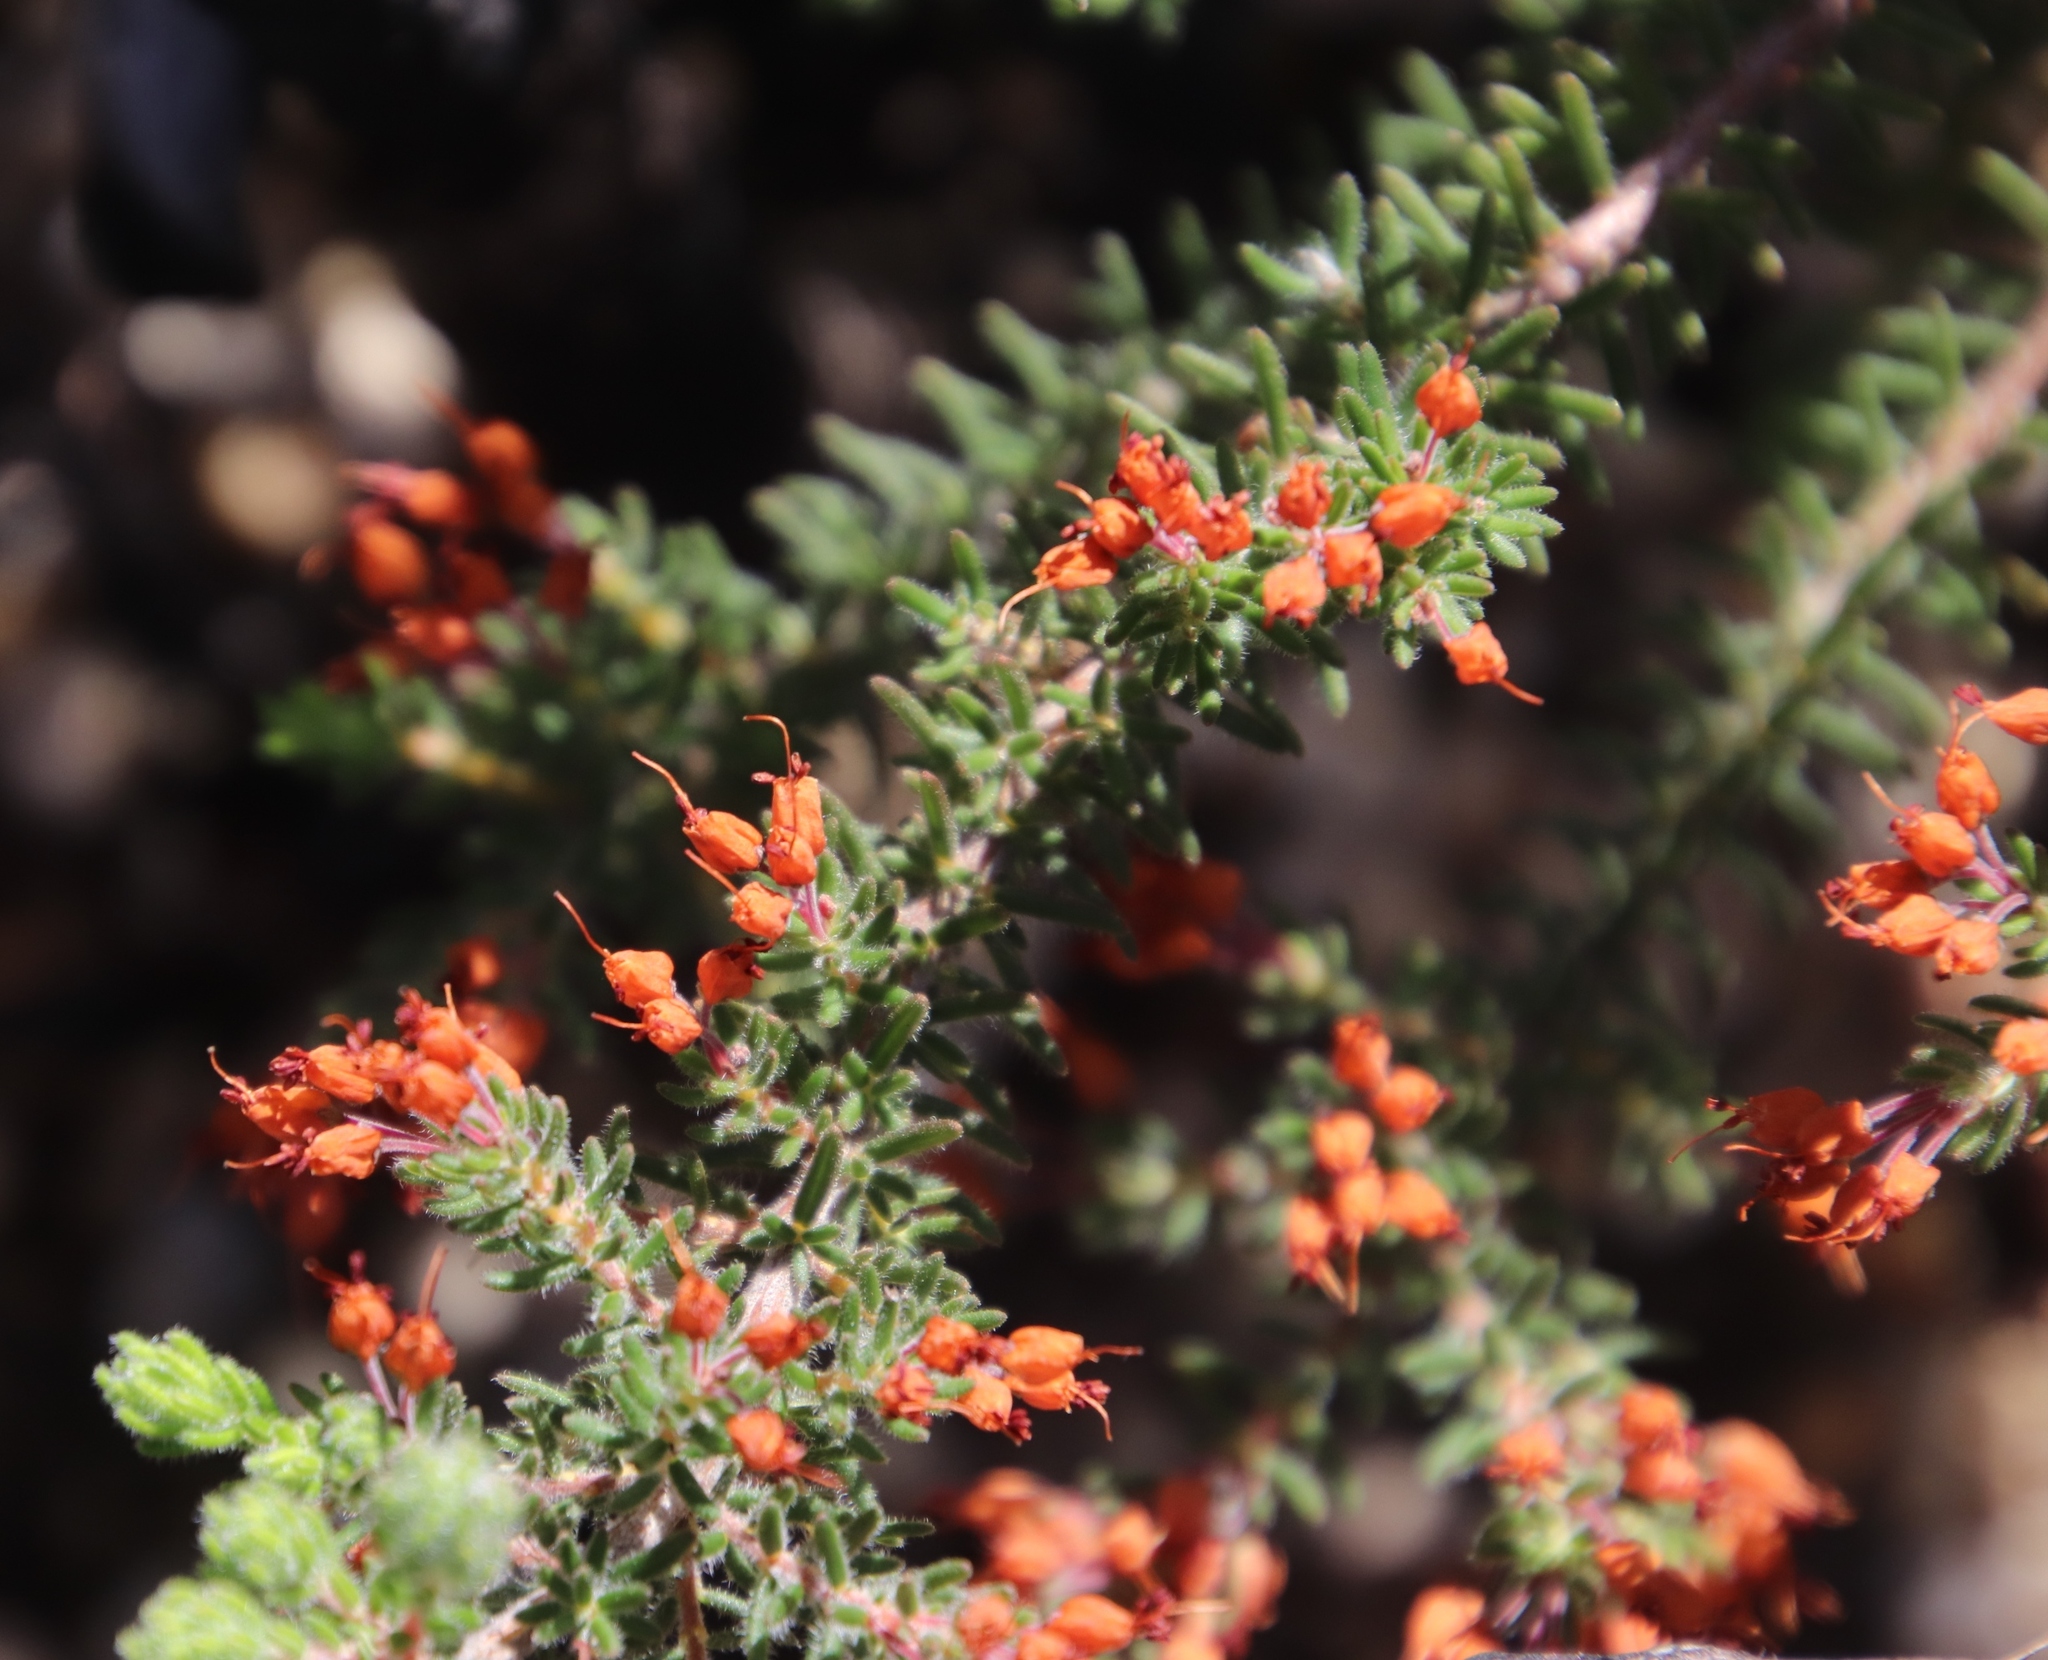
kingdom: Plantae
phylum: Tracheophyta
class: Magnoliopsida
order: Ericales
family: Ericaceae
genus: Erica
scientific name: Erica nudiflora
